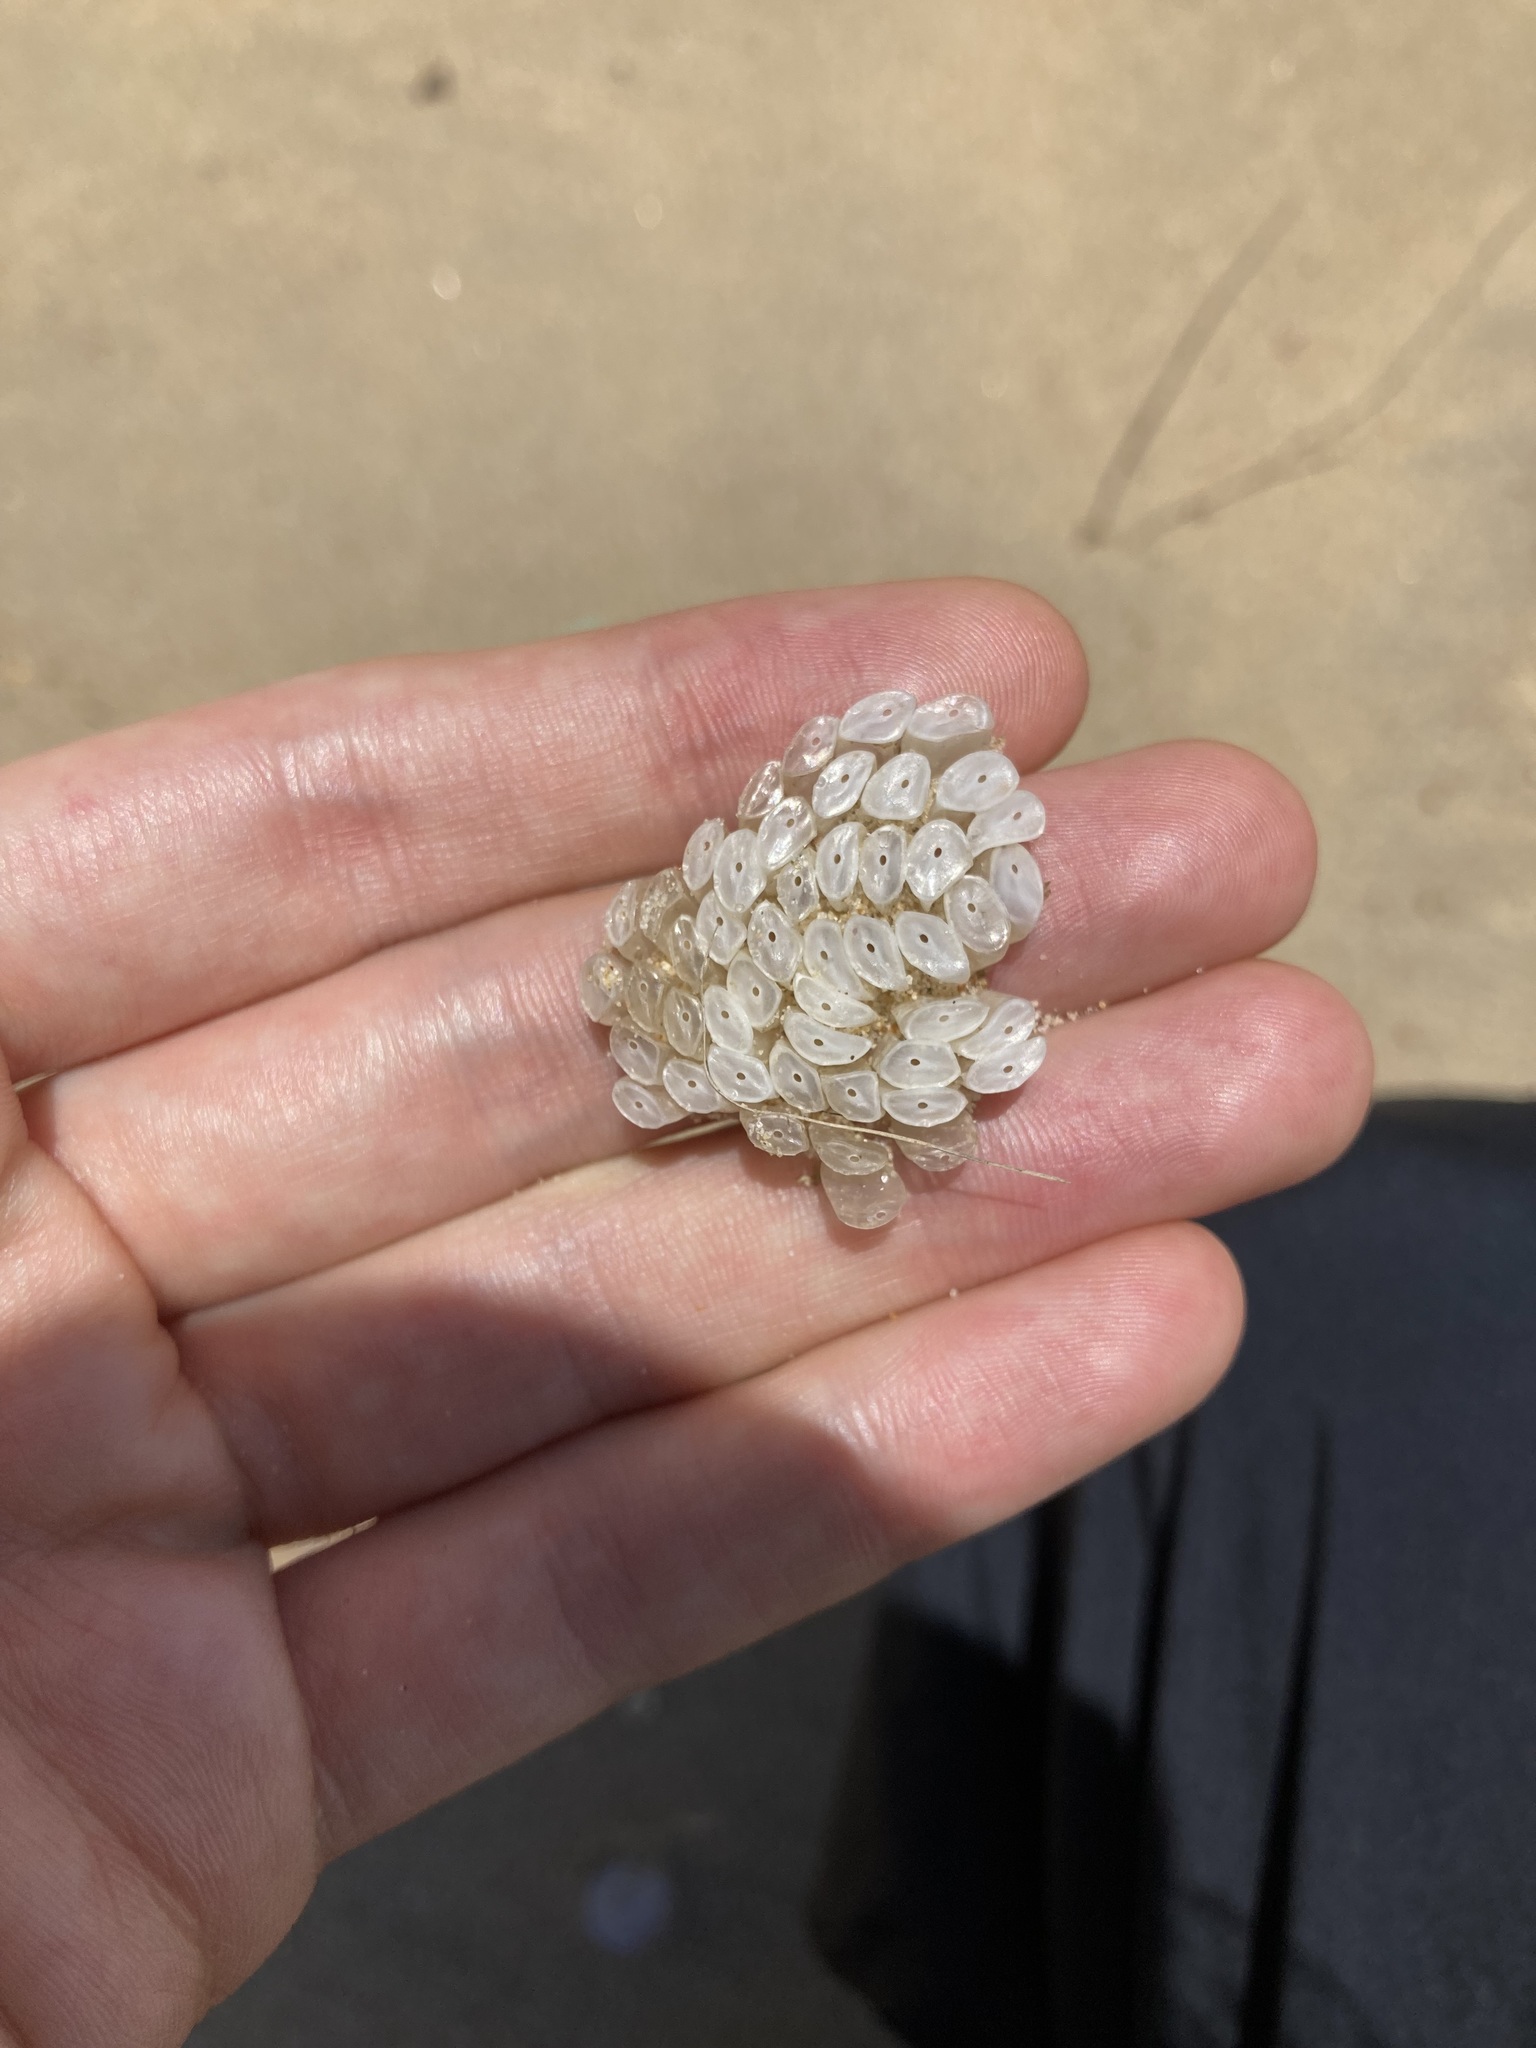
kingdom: Animalia
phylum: Mollusca
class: Gastropoda
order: Neogastropoda
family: Muricidae
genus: Dicathais
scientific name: Dicathais orbita
